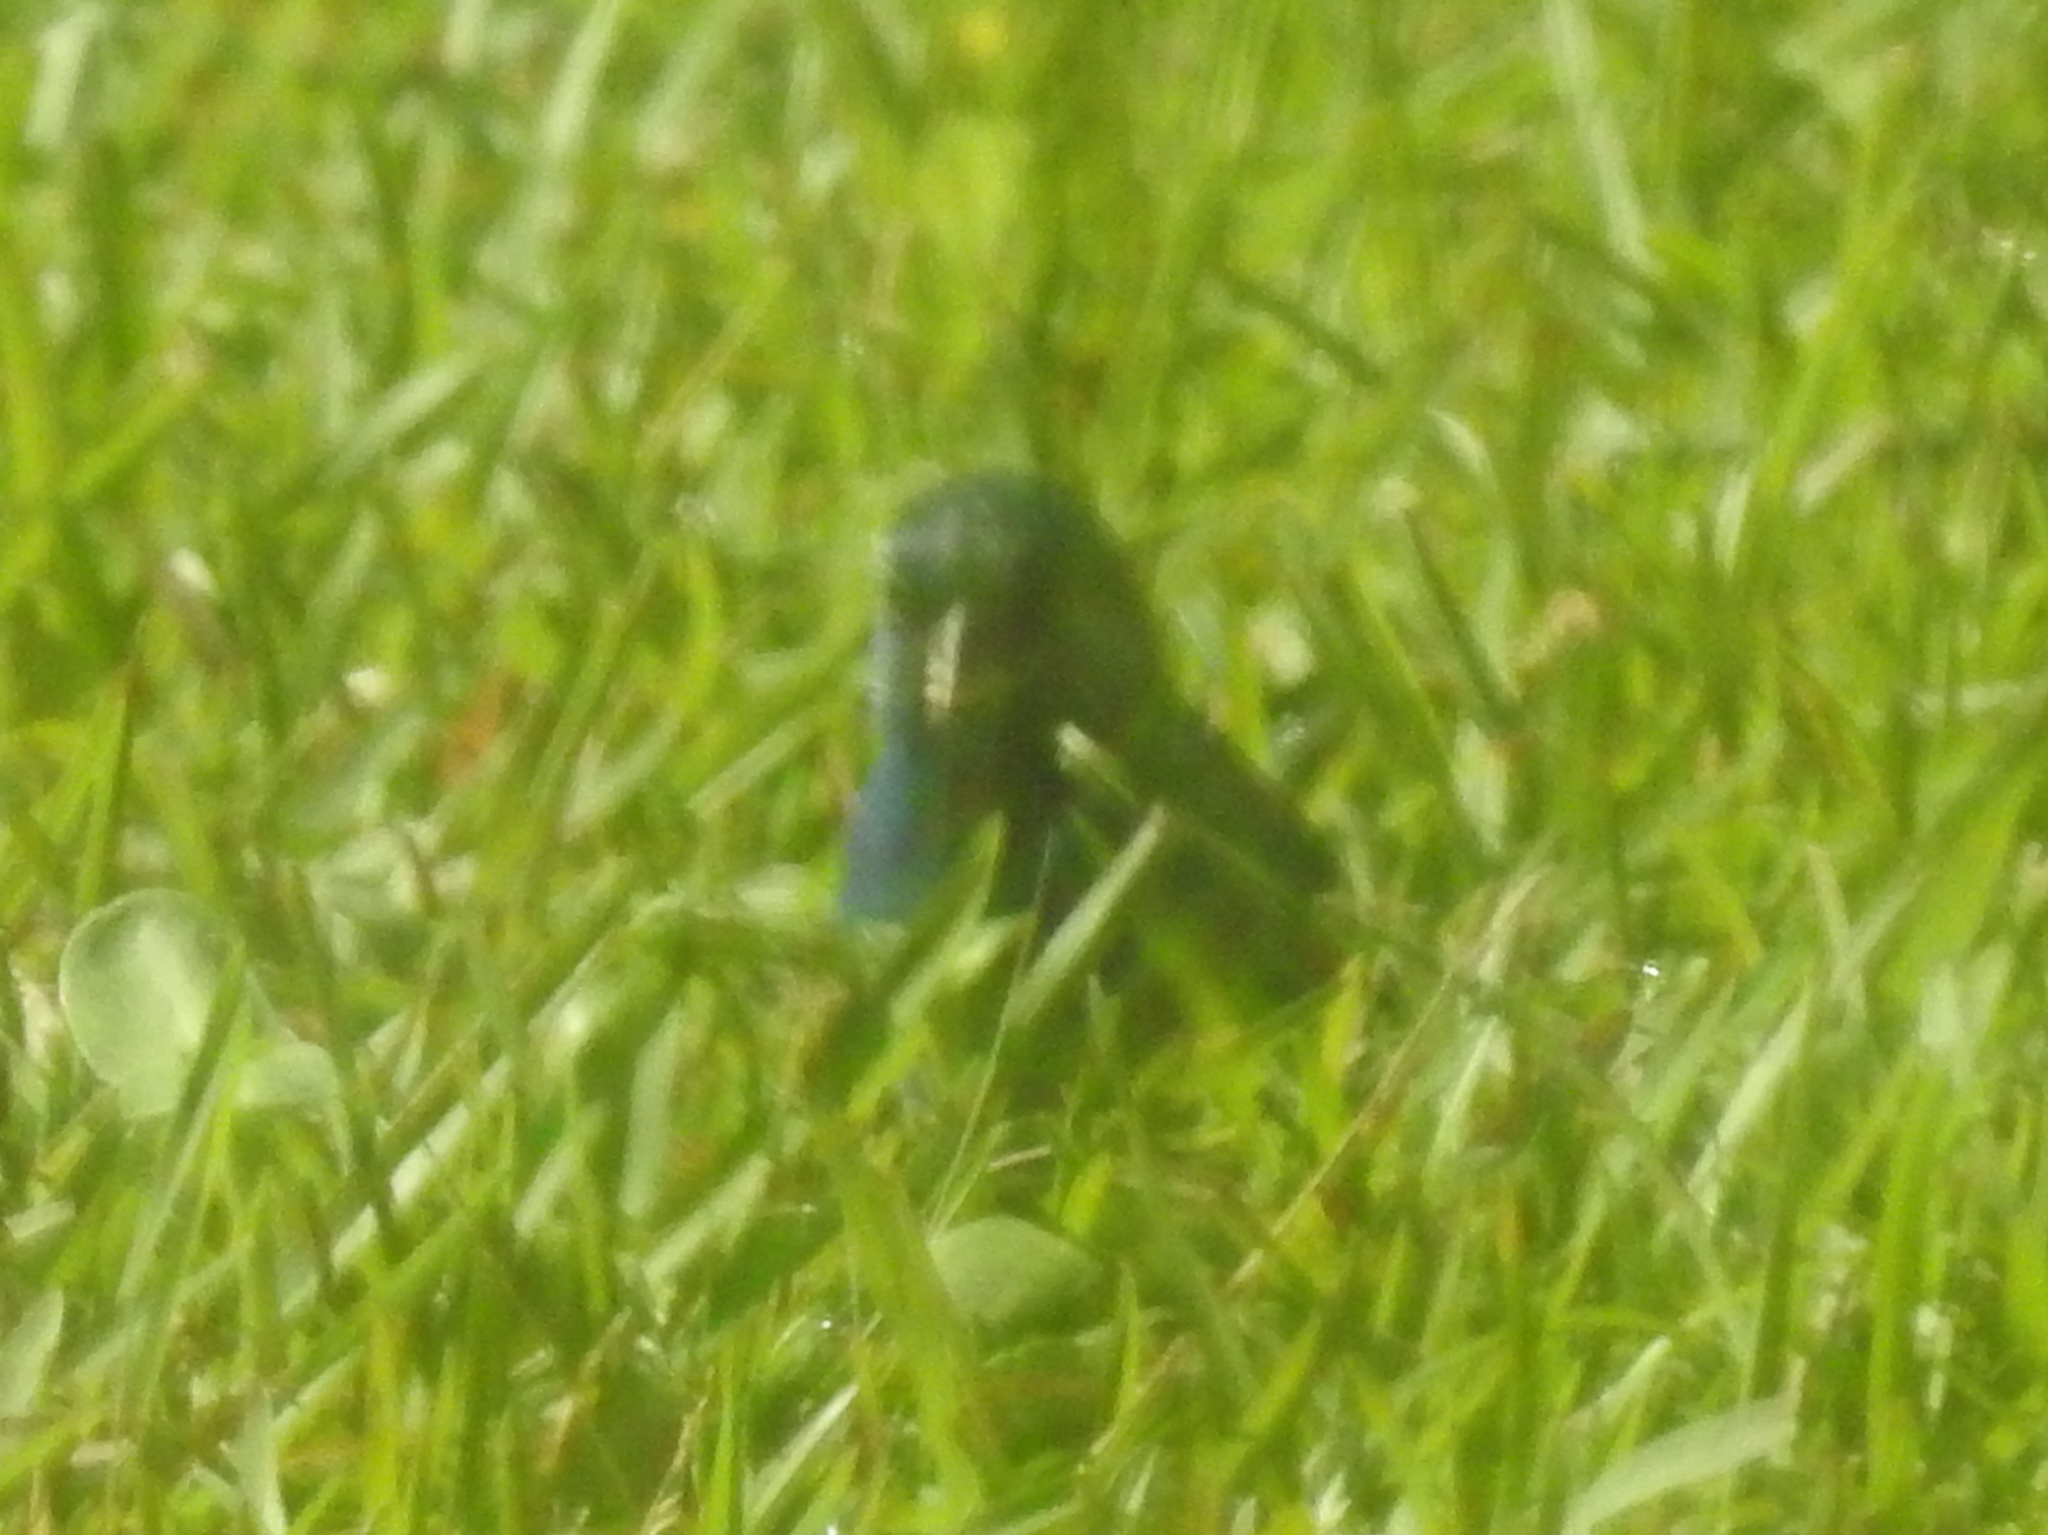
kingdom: Animalia
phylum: Chordata
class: Aves
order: Passeriformes
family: Cardinalidae
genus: Passerina
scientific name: Passerina cyanea
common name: Indigo bunting
